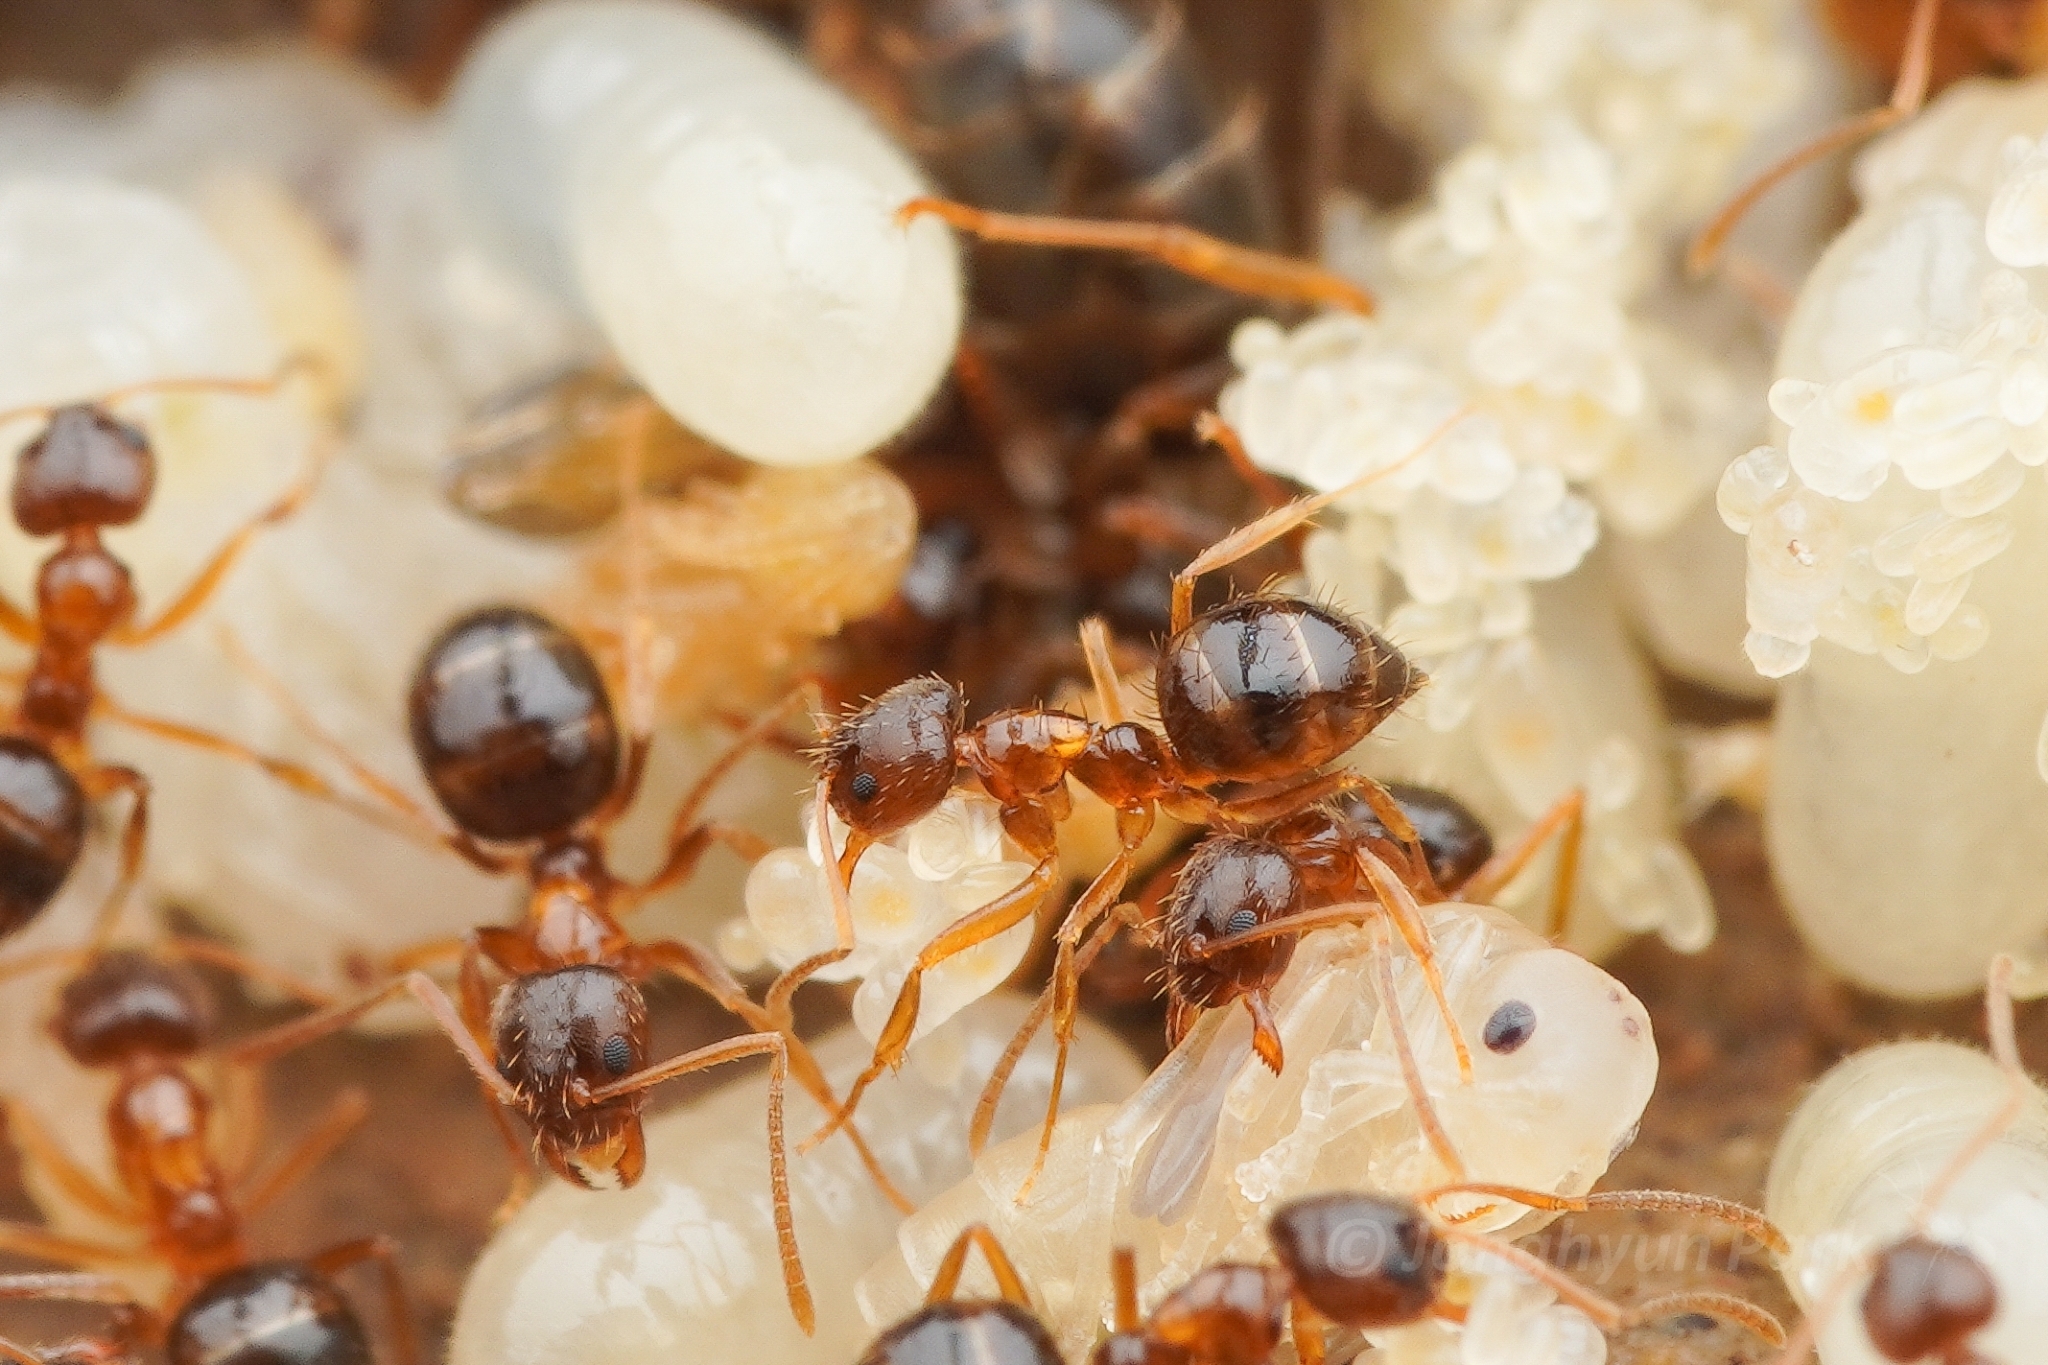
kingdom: Animalia
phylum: Arthropoda
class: Insecta
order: Hymenoptera
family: Formicidae
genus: Paratrechina
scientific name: Paratrechina flavipes
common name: Eastern asian formicine ant
